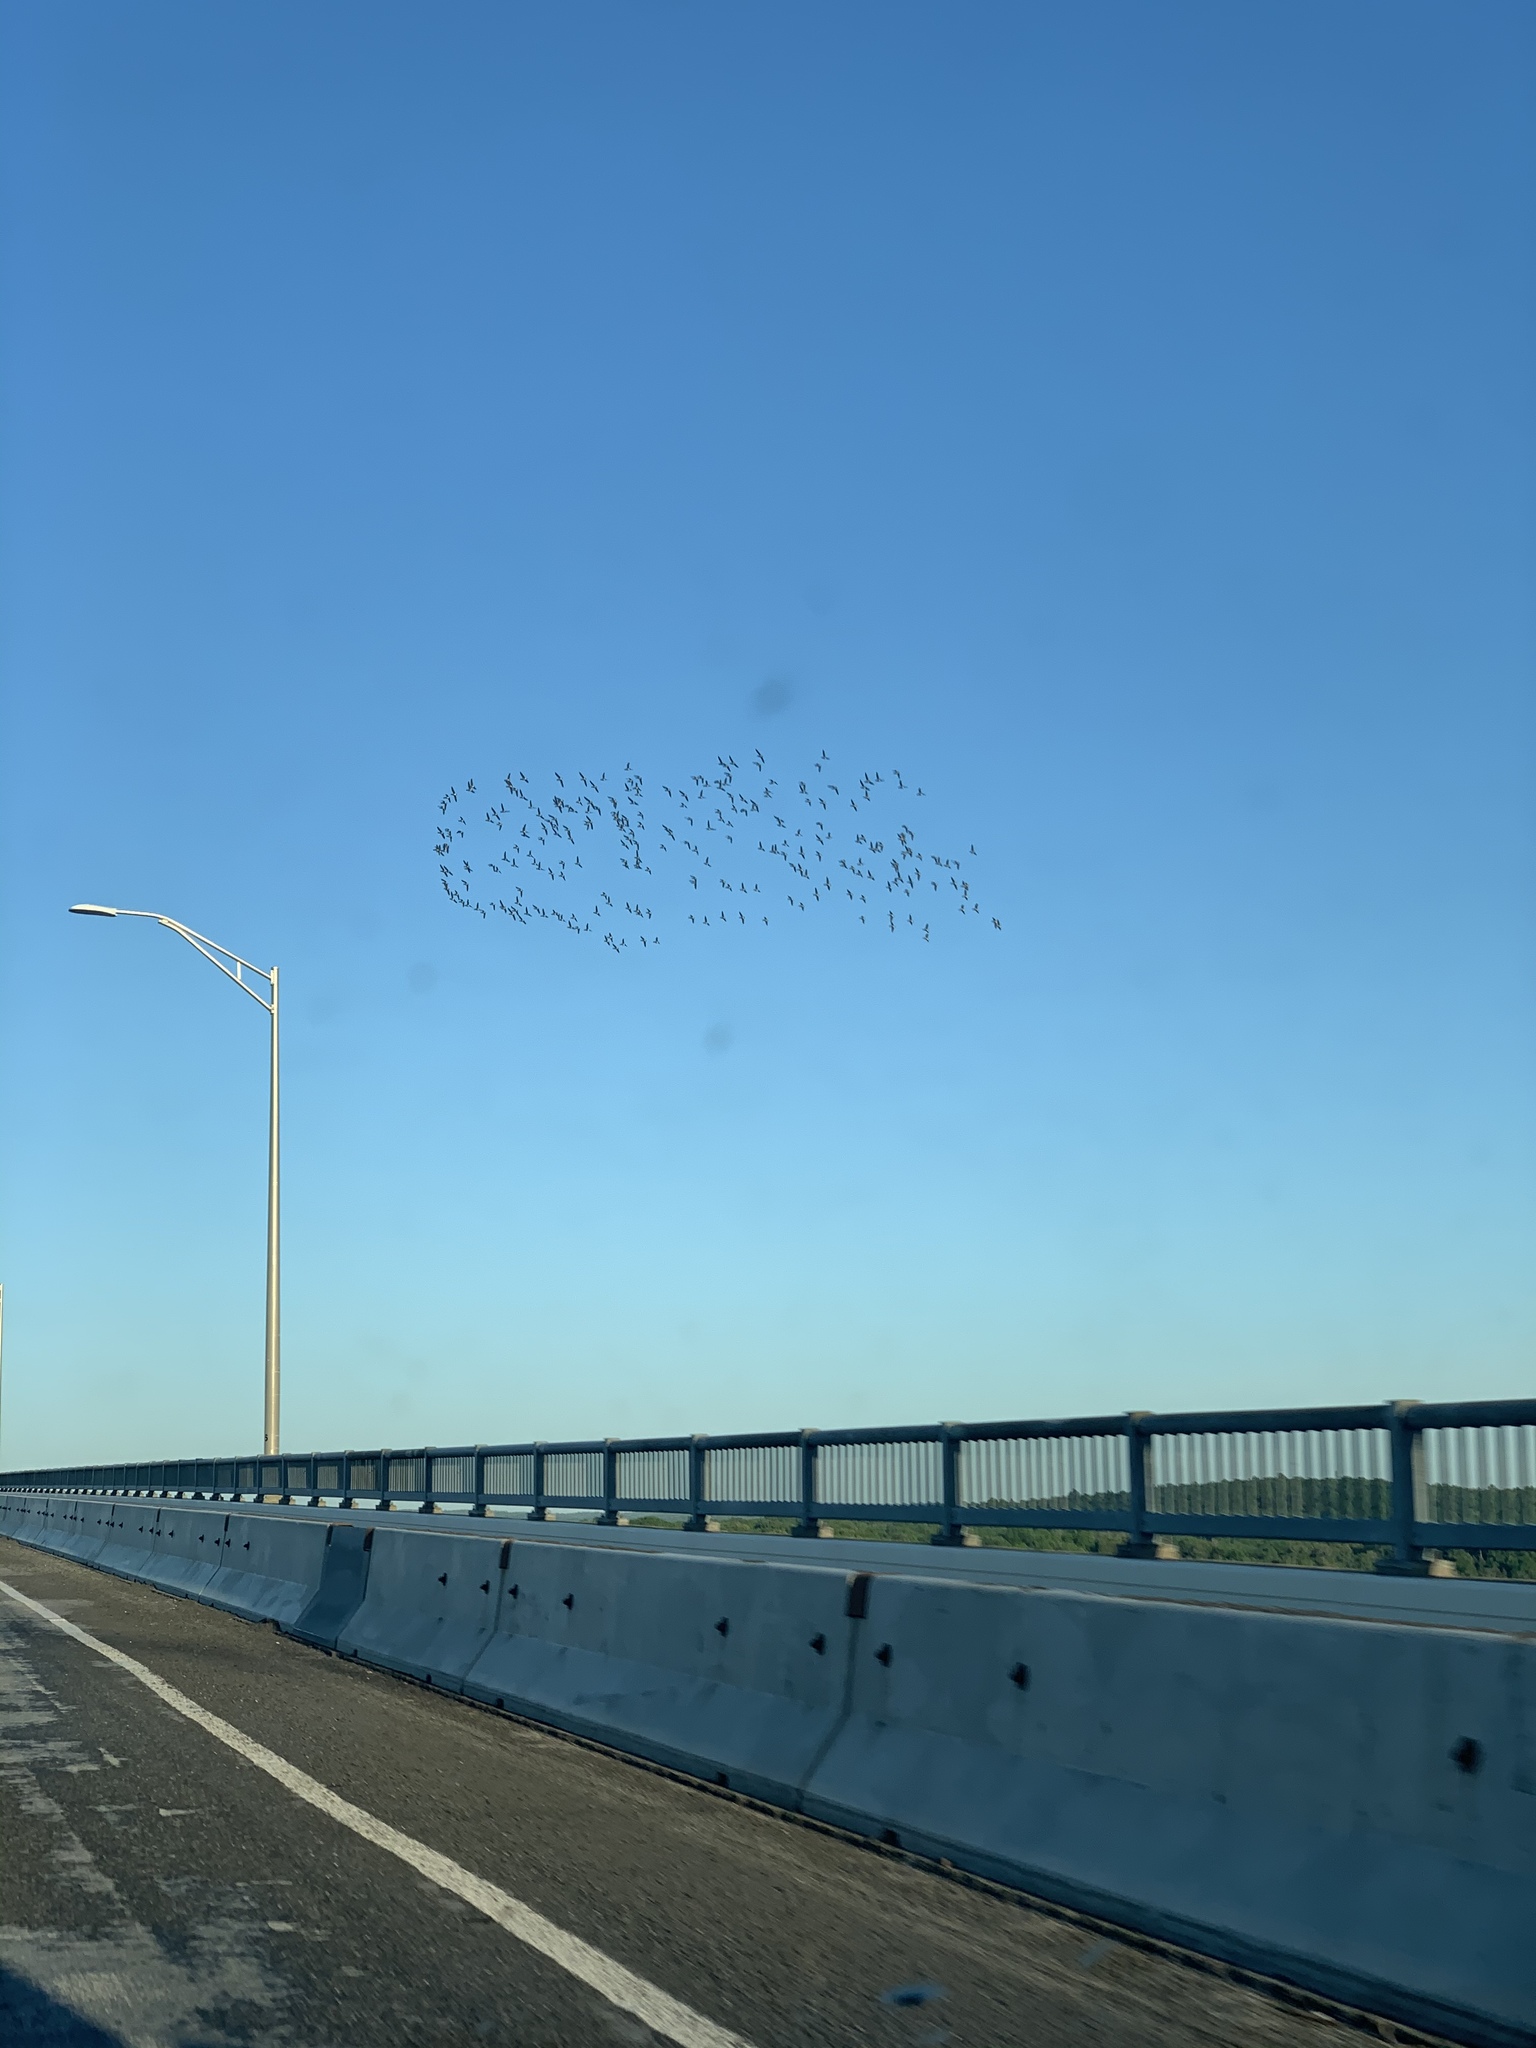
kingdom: Animalia
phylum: Chordata
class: Aves
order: Anseriformes
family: Anatidae
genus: Branta
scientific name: Branta bernicla
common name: Brant goose
